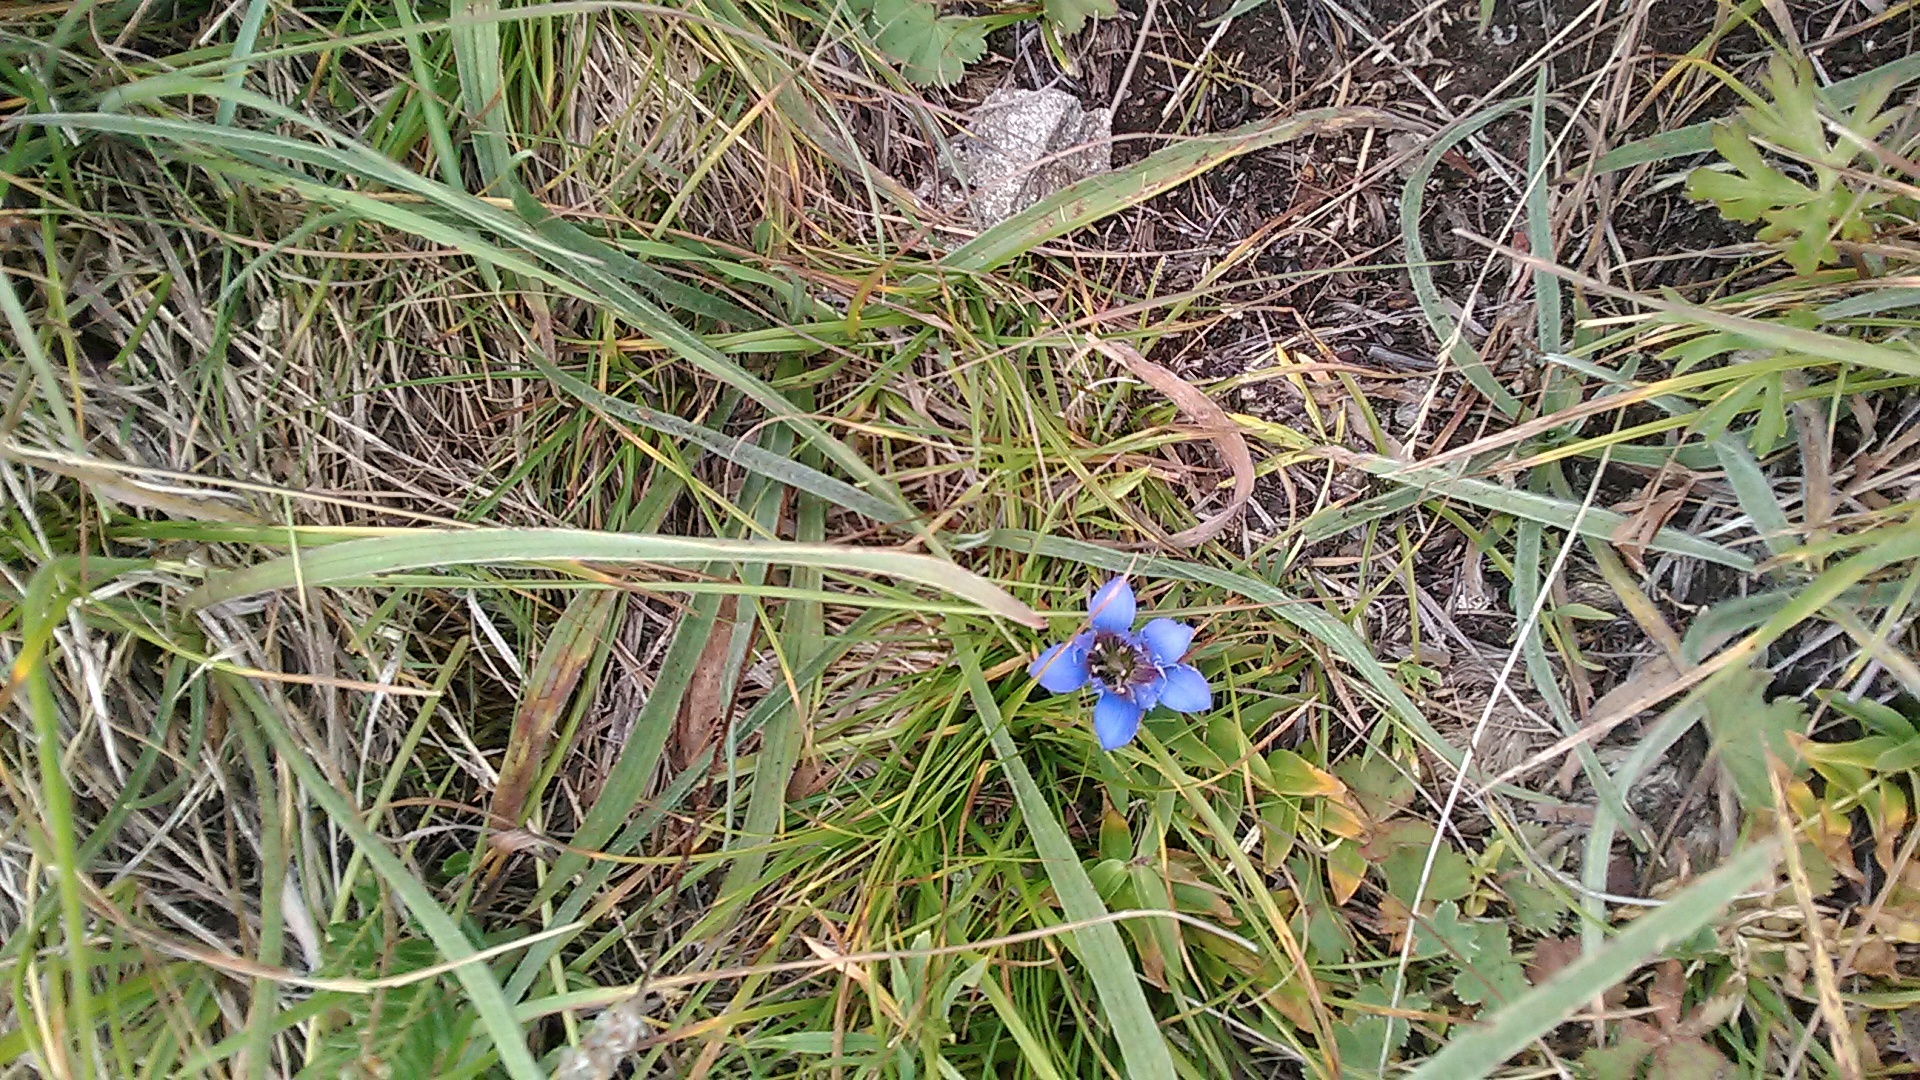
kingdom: Plantae
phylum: Tracheophyta
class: Magnoliopsida
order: Gentianales
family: Gentianaceae
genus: Gentiana
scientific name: Gentiana septemfida
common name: Crested gentian
